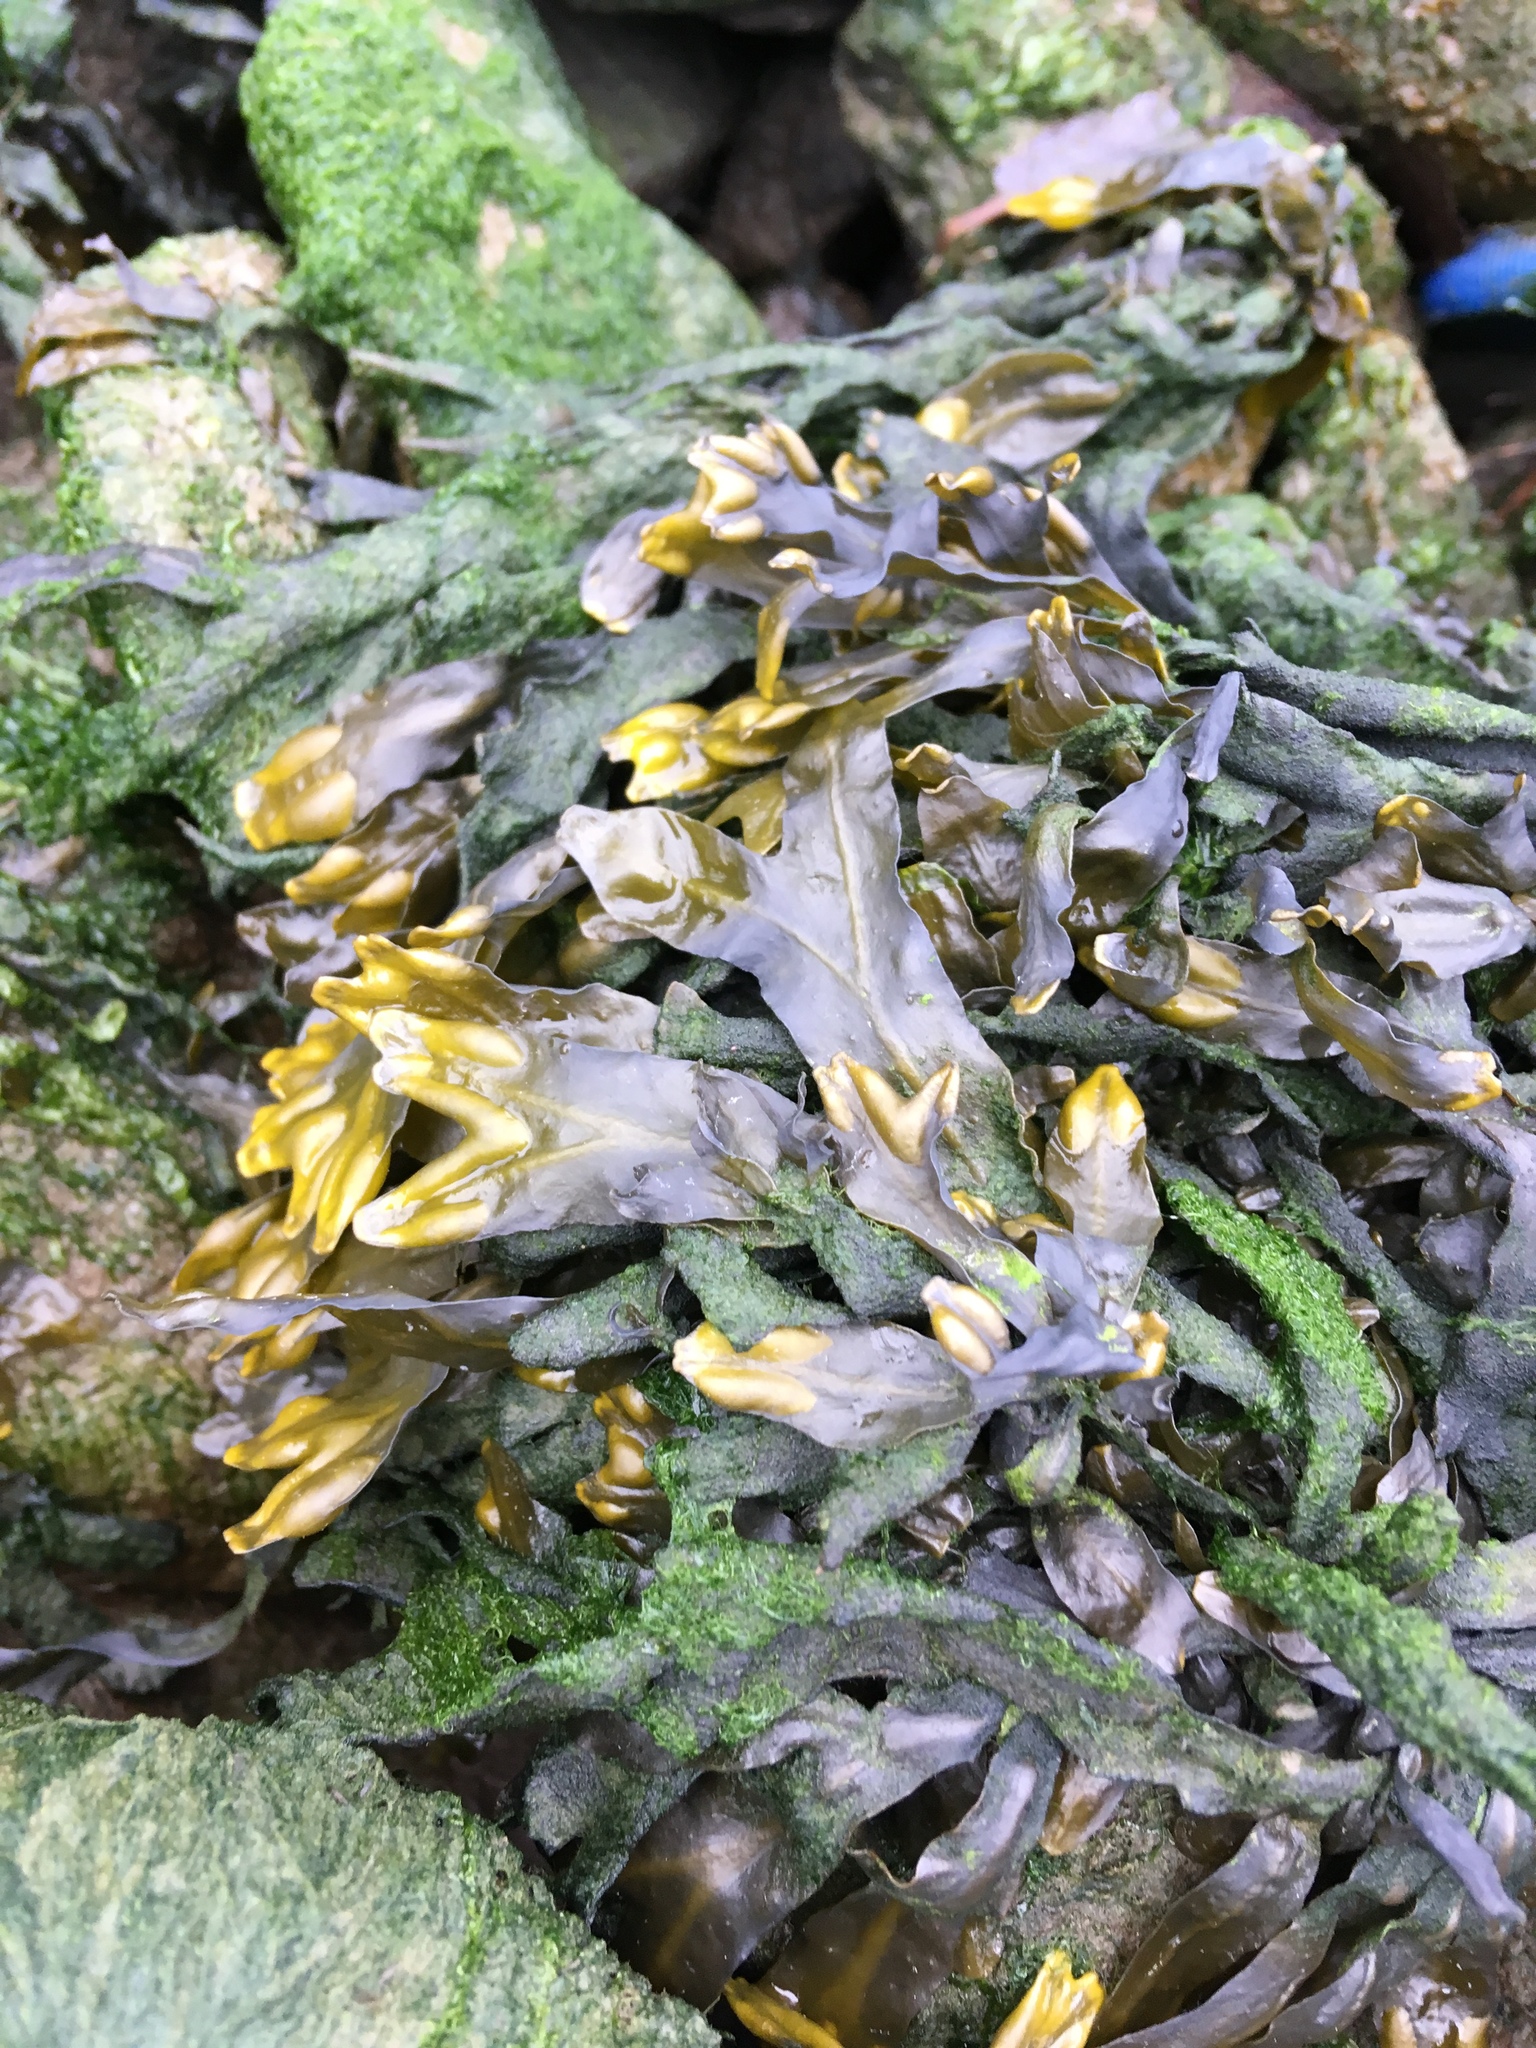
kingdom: Chromista
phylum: Ochrophyta
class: Phaeophyceae
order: Fucales
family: Fucaceae
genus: Fucus
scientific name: Fucus distichus
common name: Rockweed
